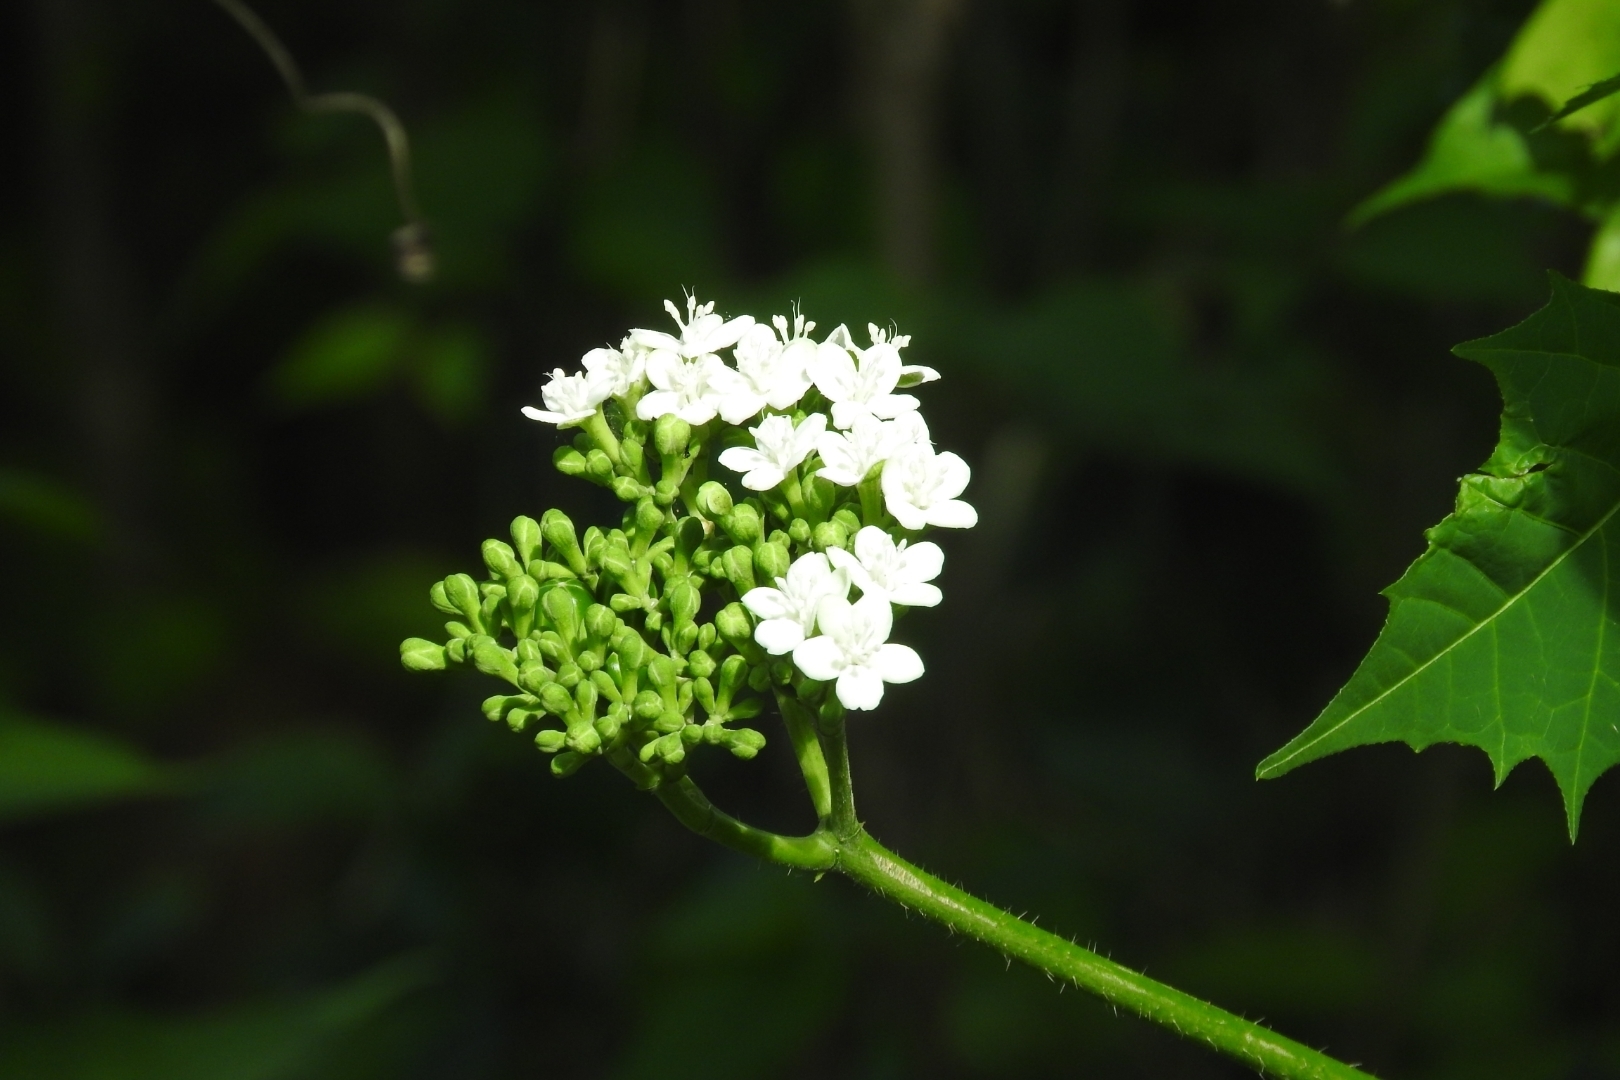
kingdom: Plantae
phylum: Tracheophyta
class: Magnoliopsida
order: Malpighiales
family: Euphorbiaceae
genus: Cnidoscolus
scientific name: Cnidoscolus aconitifolius
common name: Cabbage-star
